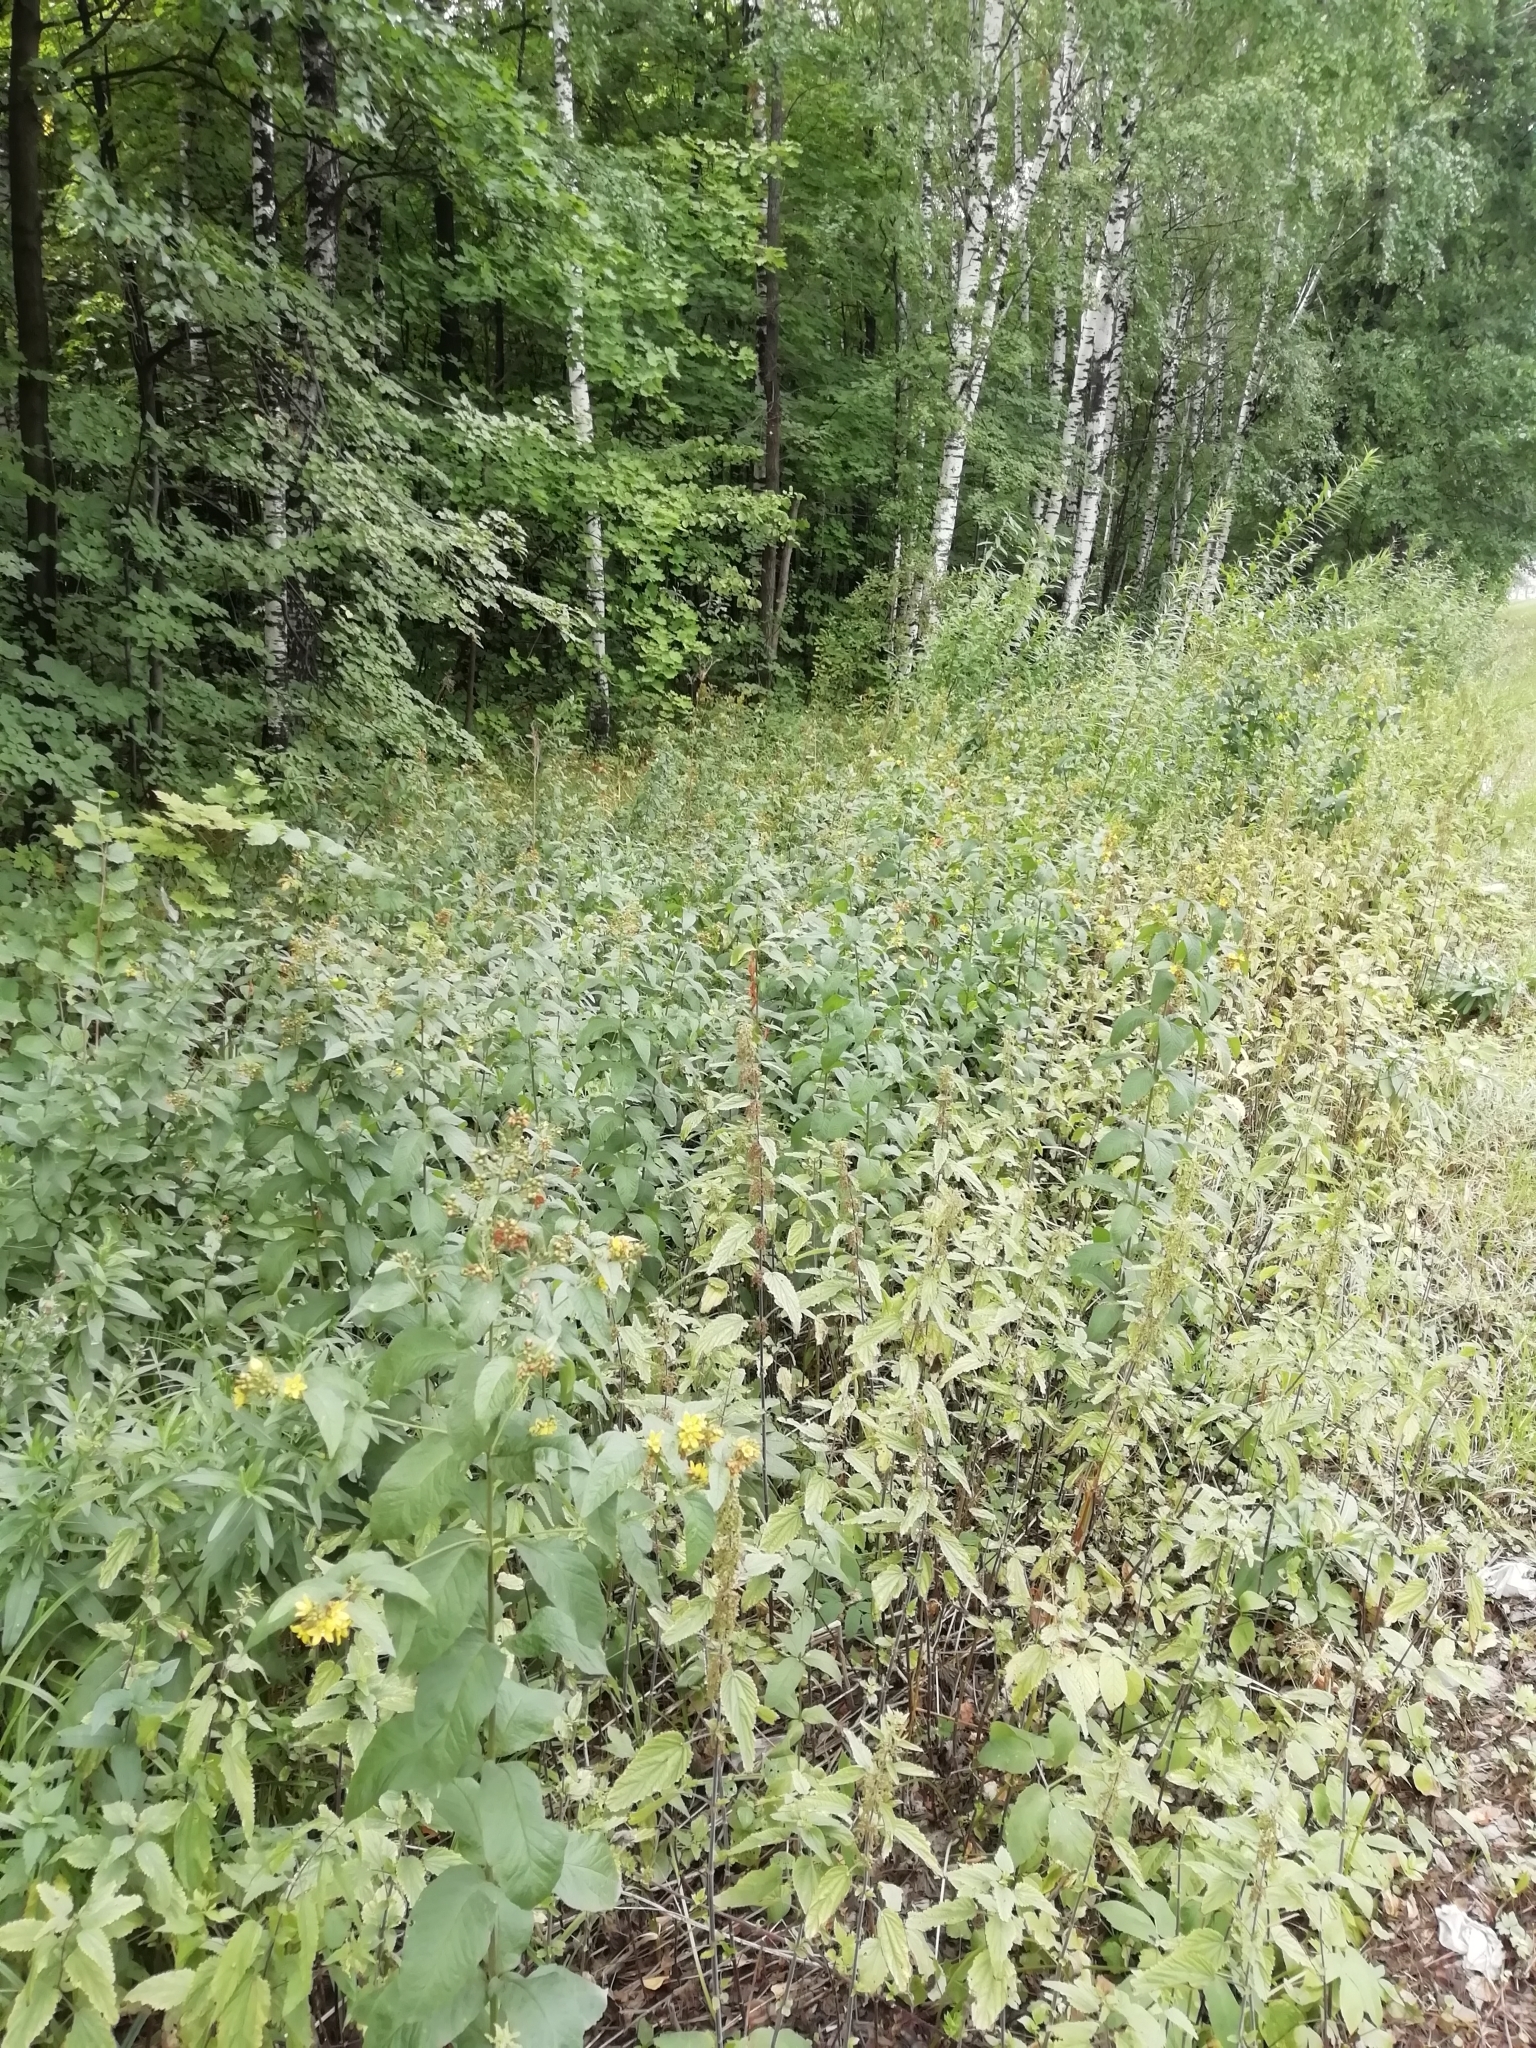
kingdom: Plantae
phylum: Tracheophyta
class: Magnoliopsida
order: Ericales
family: Primulaceae
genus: Lysimachia
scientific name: Lysimachia vulgaris
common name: Yellow loosestrife
